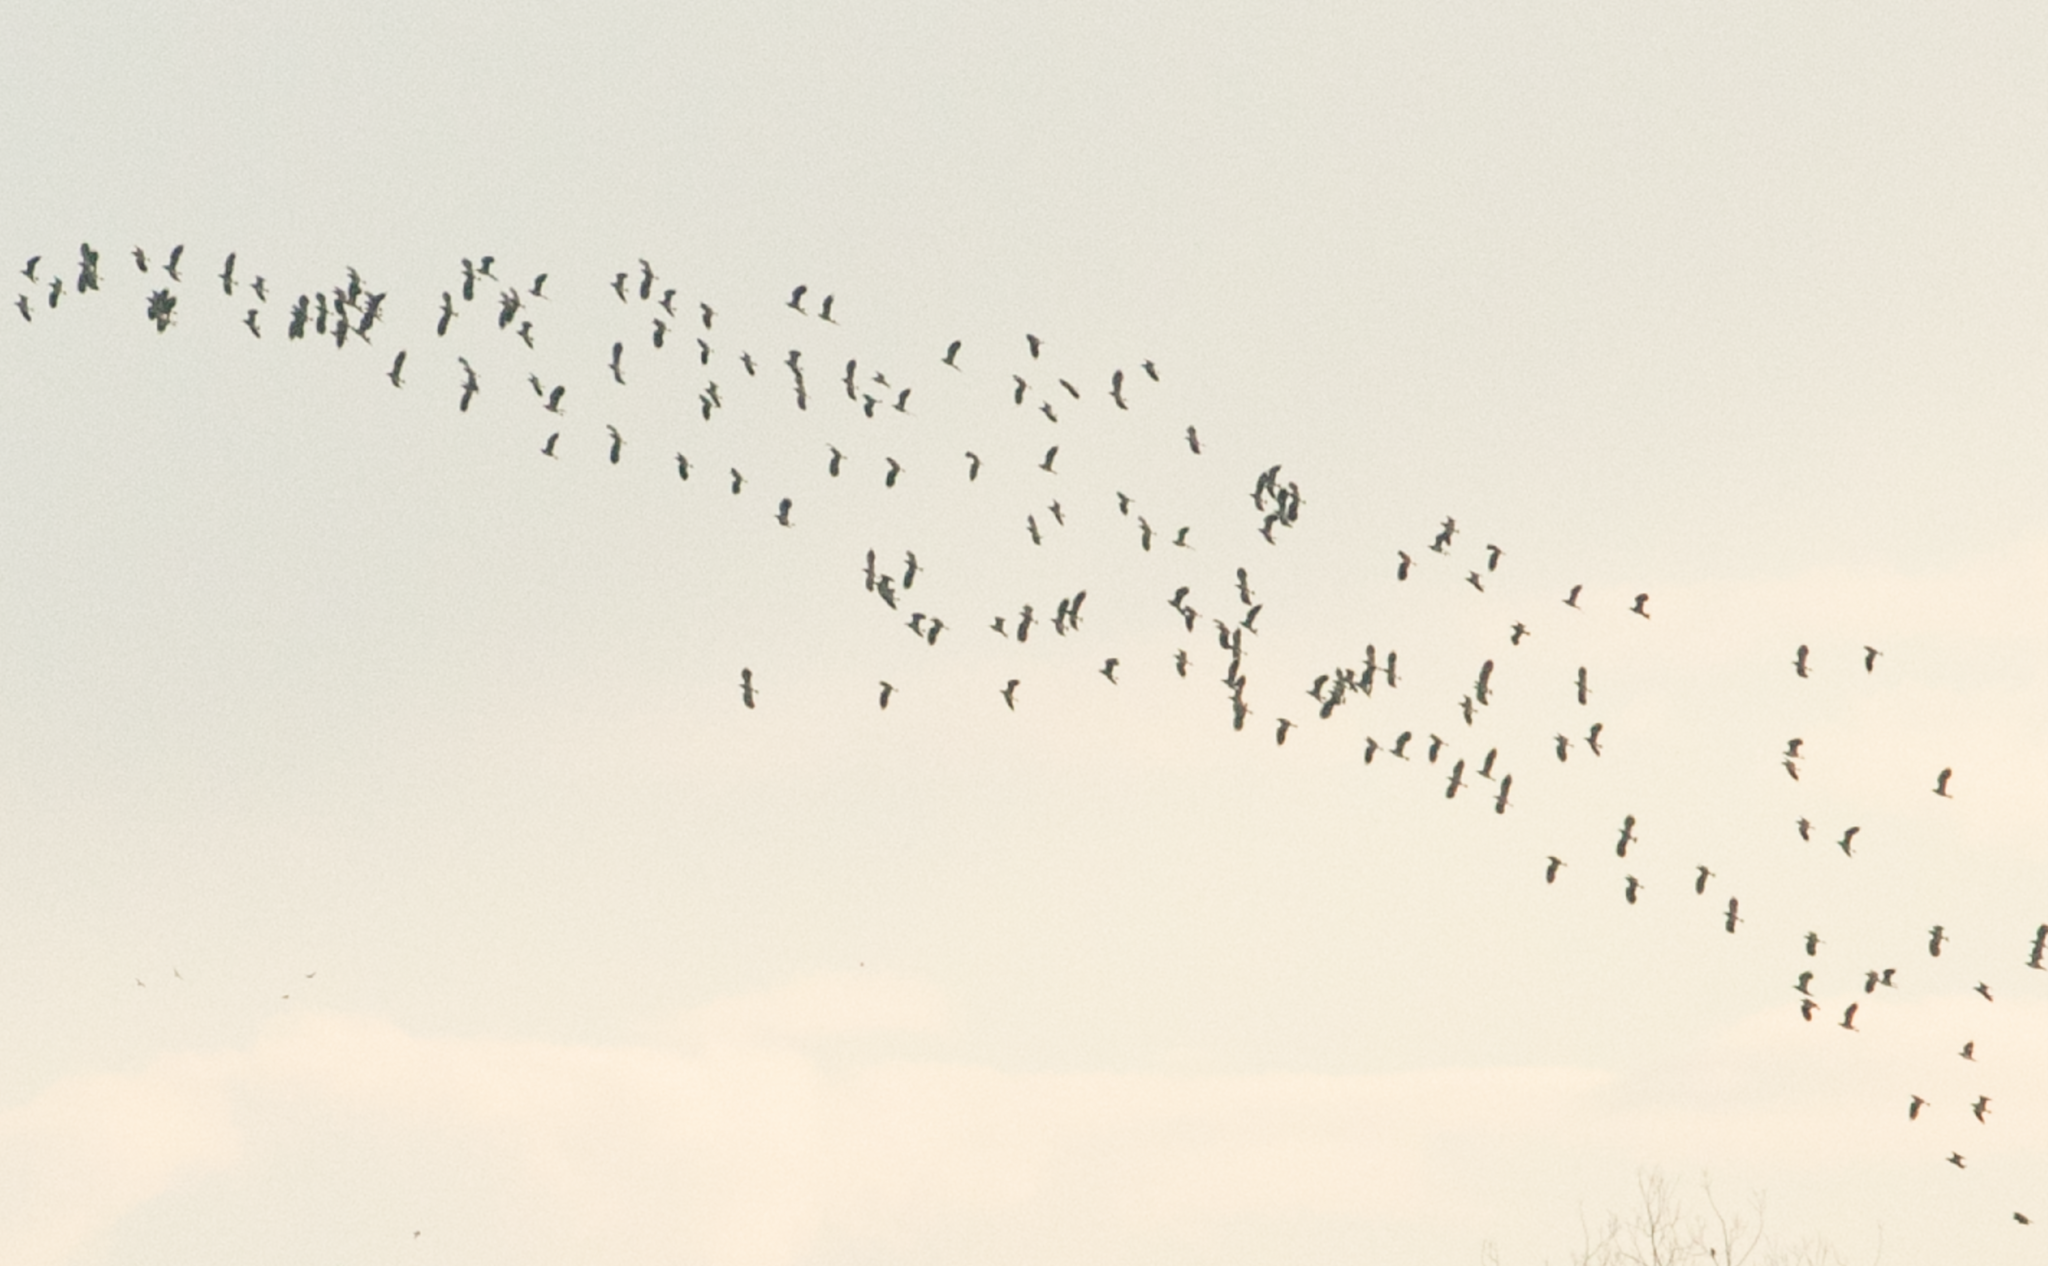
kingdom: Animalia
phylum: Chordata
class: Aves
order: Charadriiformes
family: Charadriidae
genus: Vanellus
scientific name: Vanellus vanellus
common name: Northern lapwing
